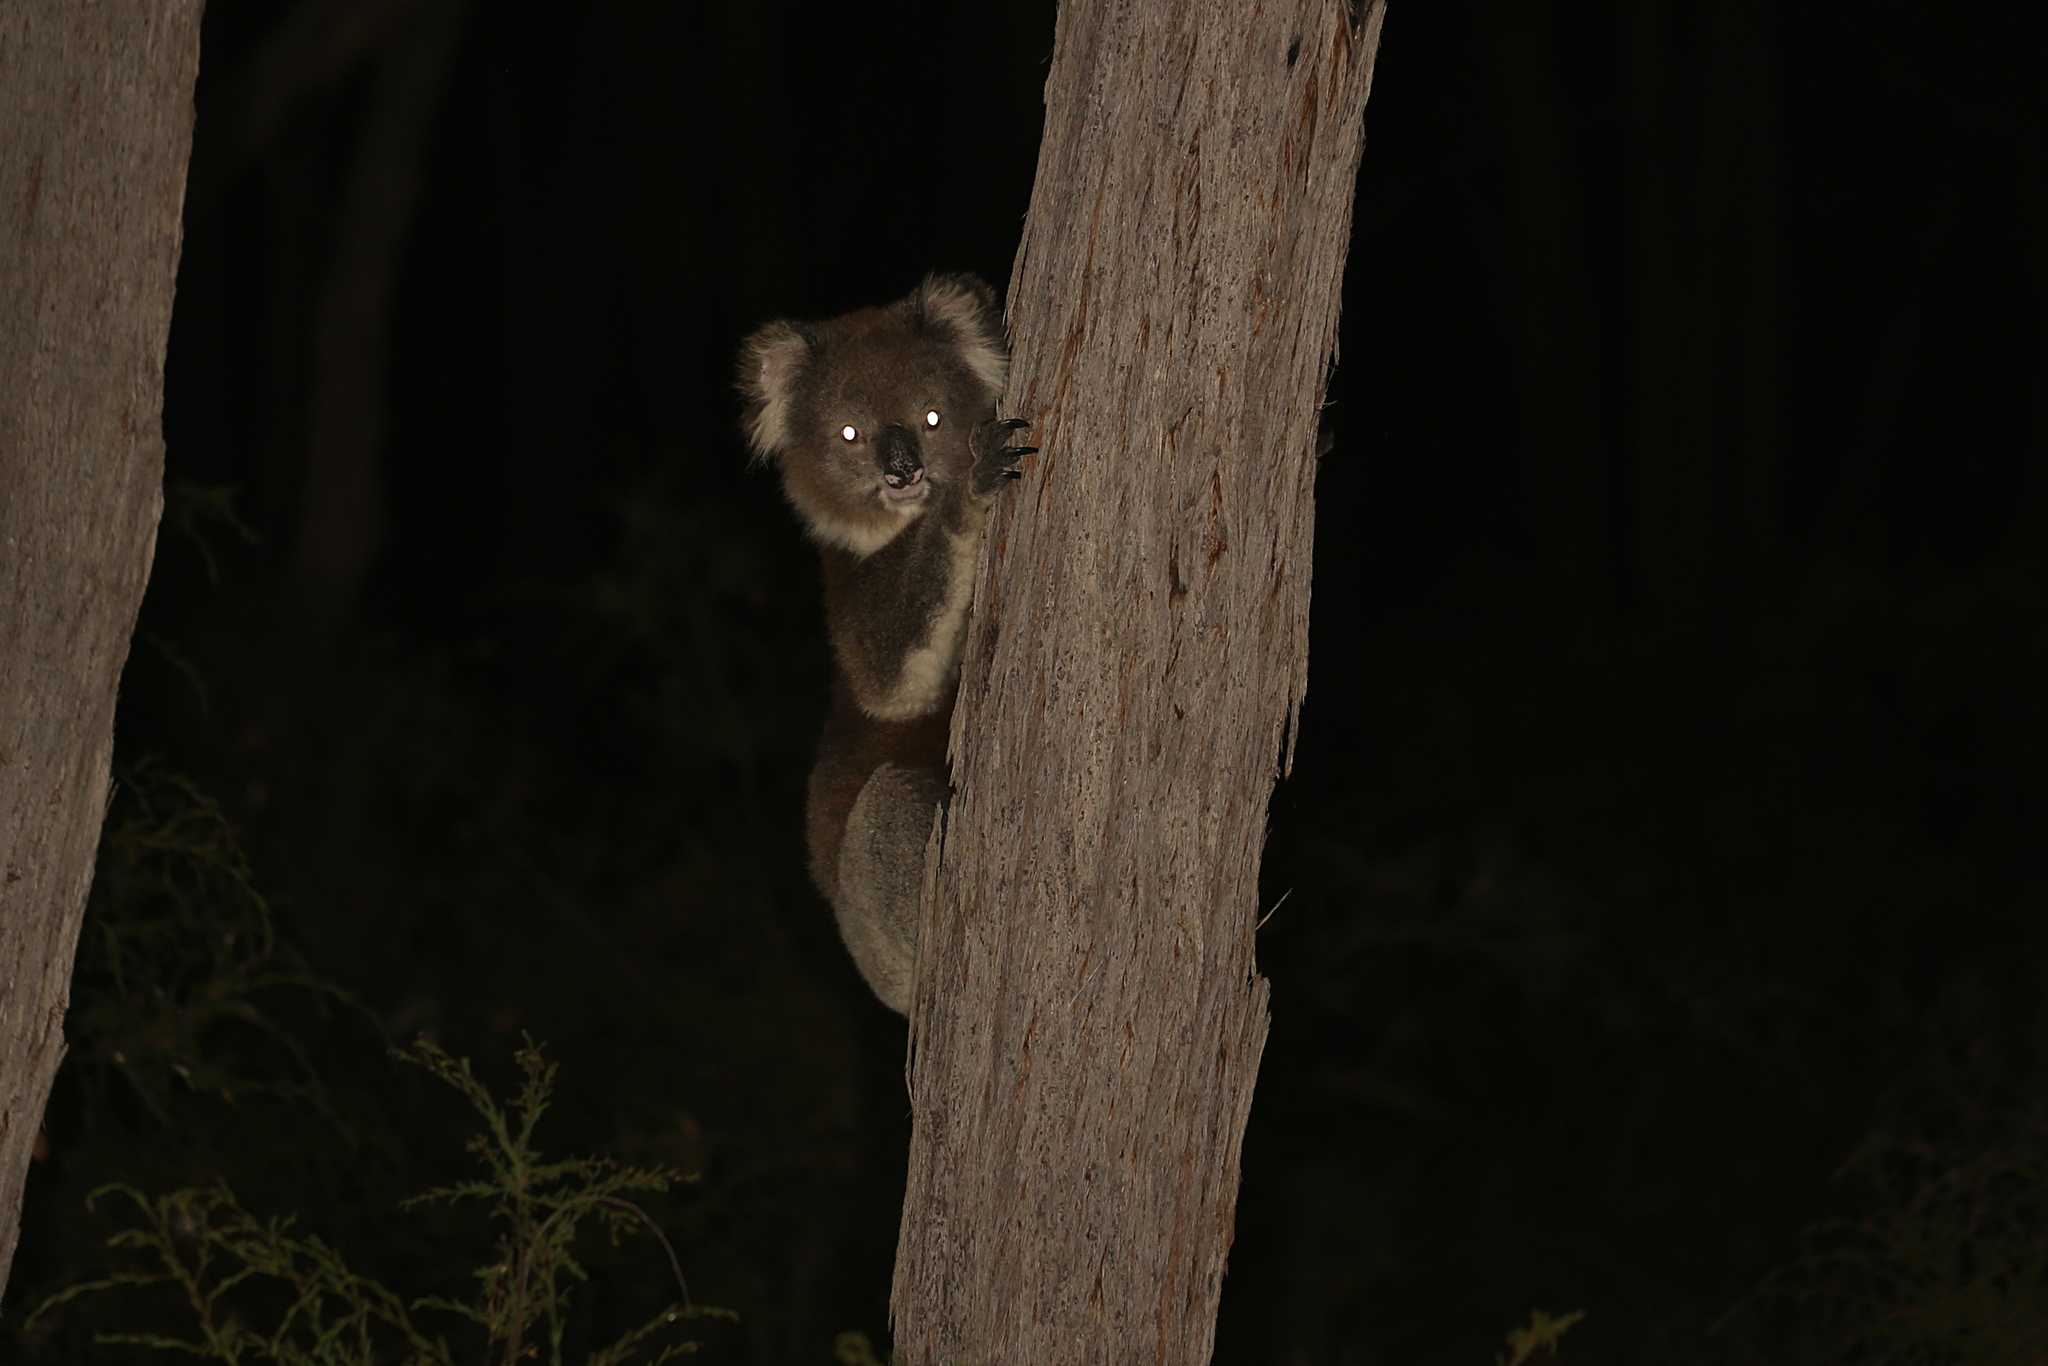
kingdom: Animalia
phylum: Chordata
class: Mammalia
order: Diprotodontia
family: Phascolarctidae
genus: Phascolarctos
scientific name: Phascolarctos cinereus
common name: Koala
